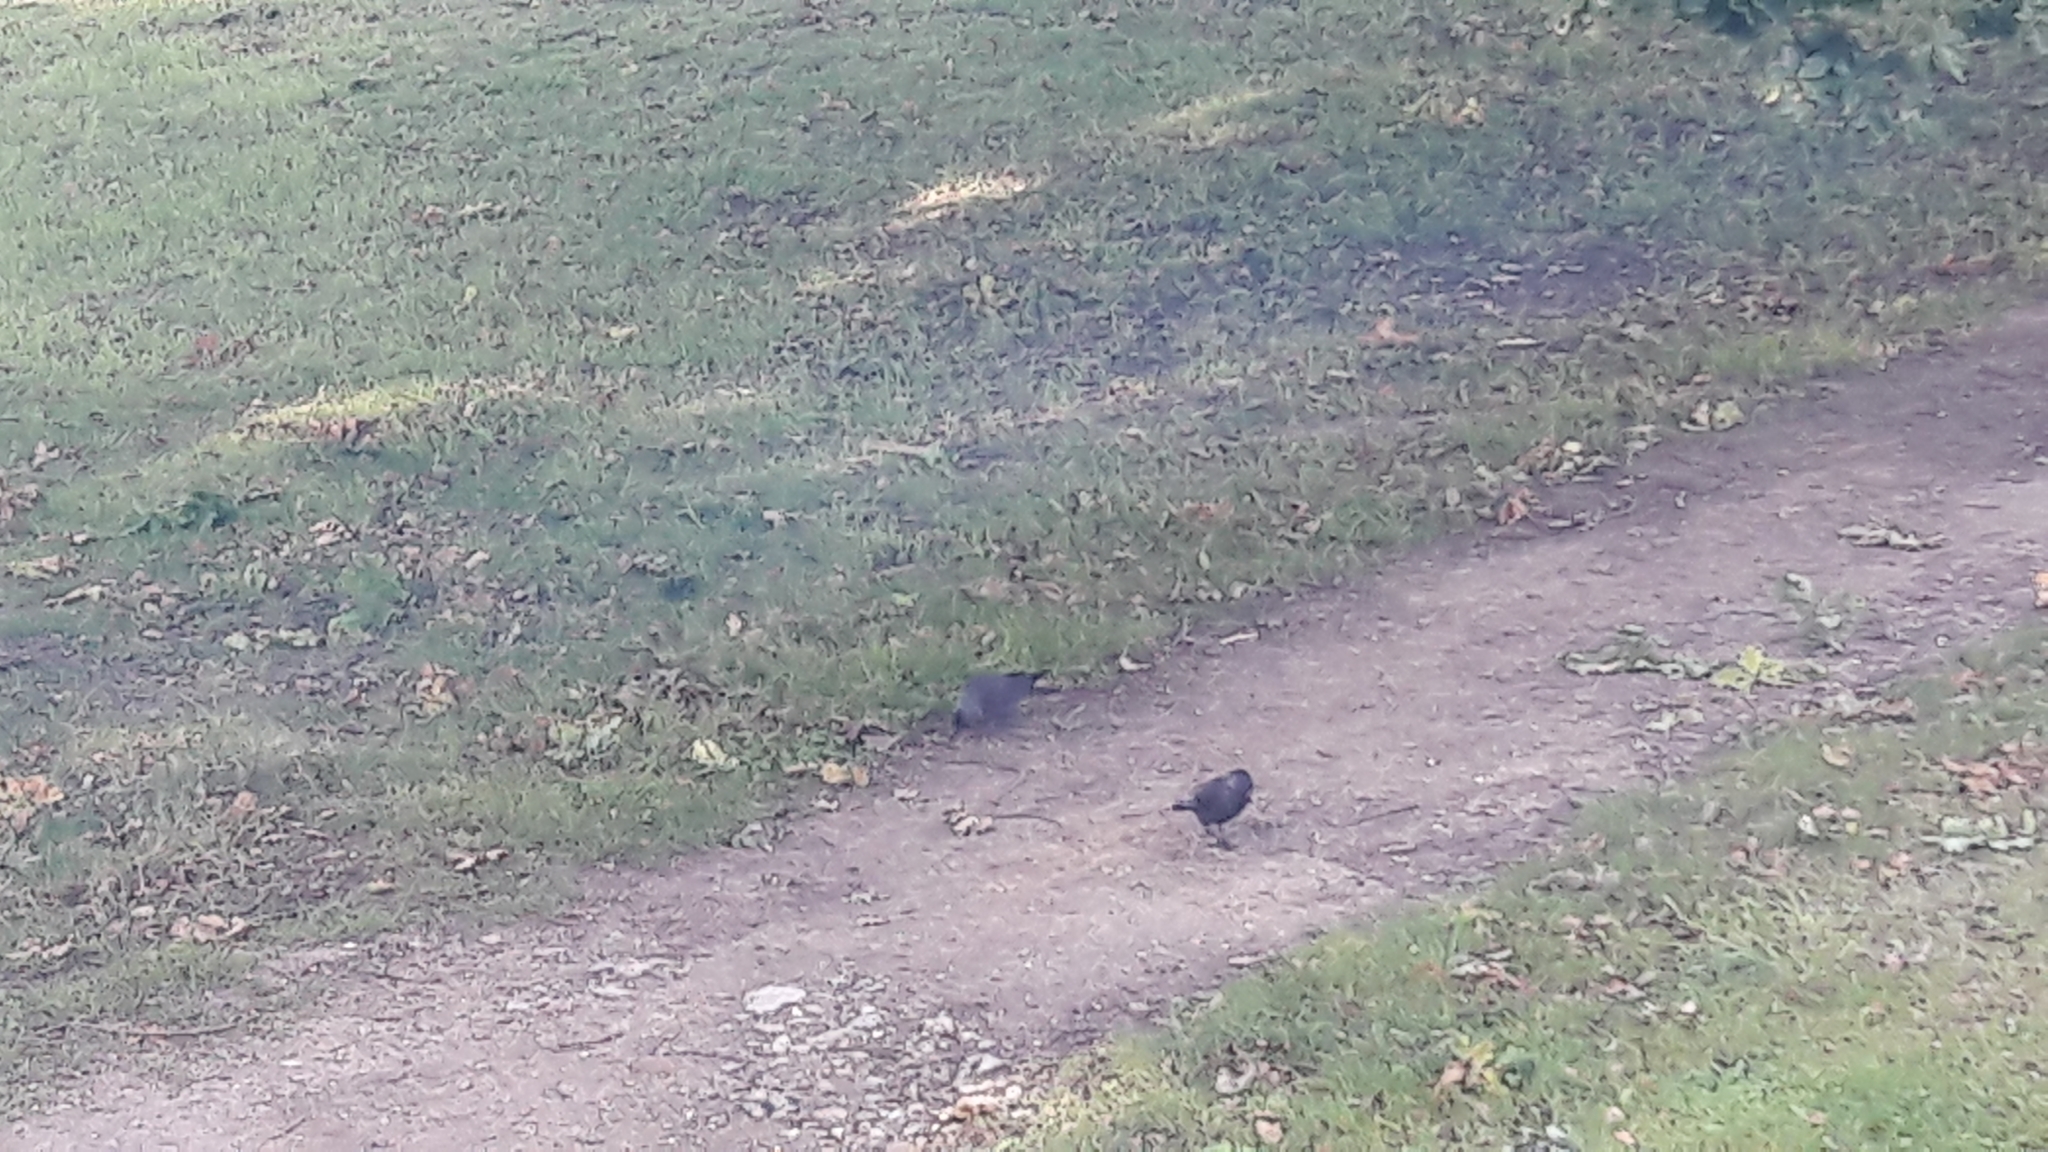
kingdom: Animalia
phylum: Chordata
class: Aves
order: Passeriformes
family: Corvidae
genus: Coloeus
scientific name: Coloeus monedula
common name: Western jackdaw
